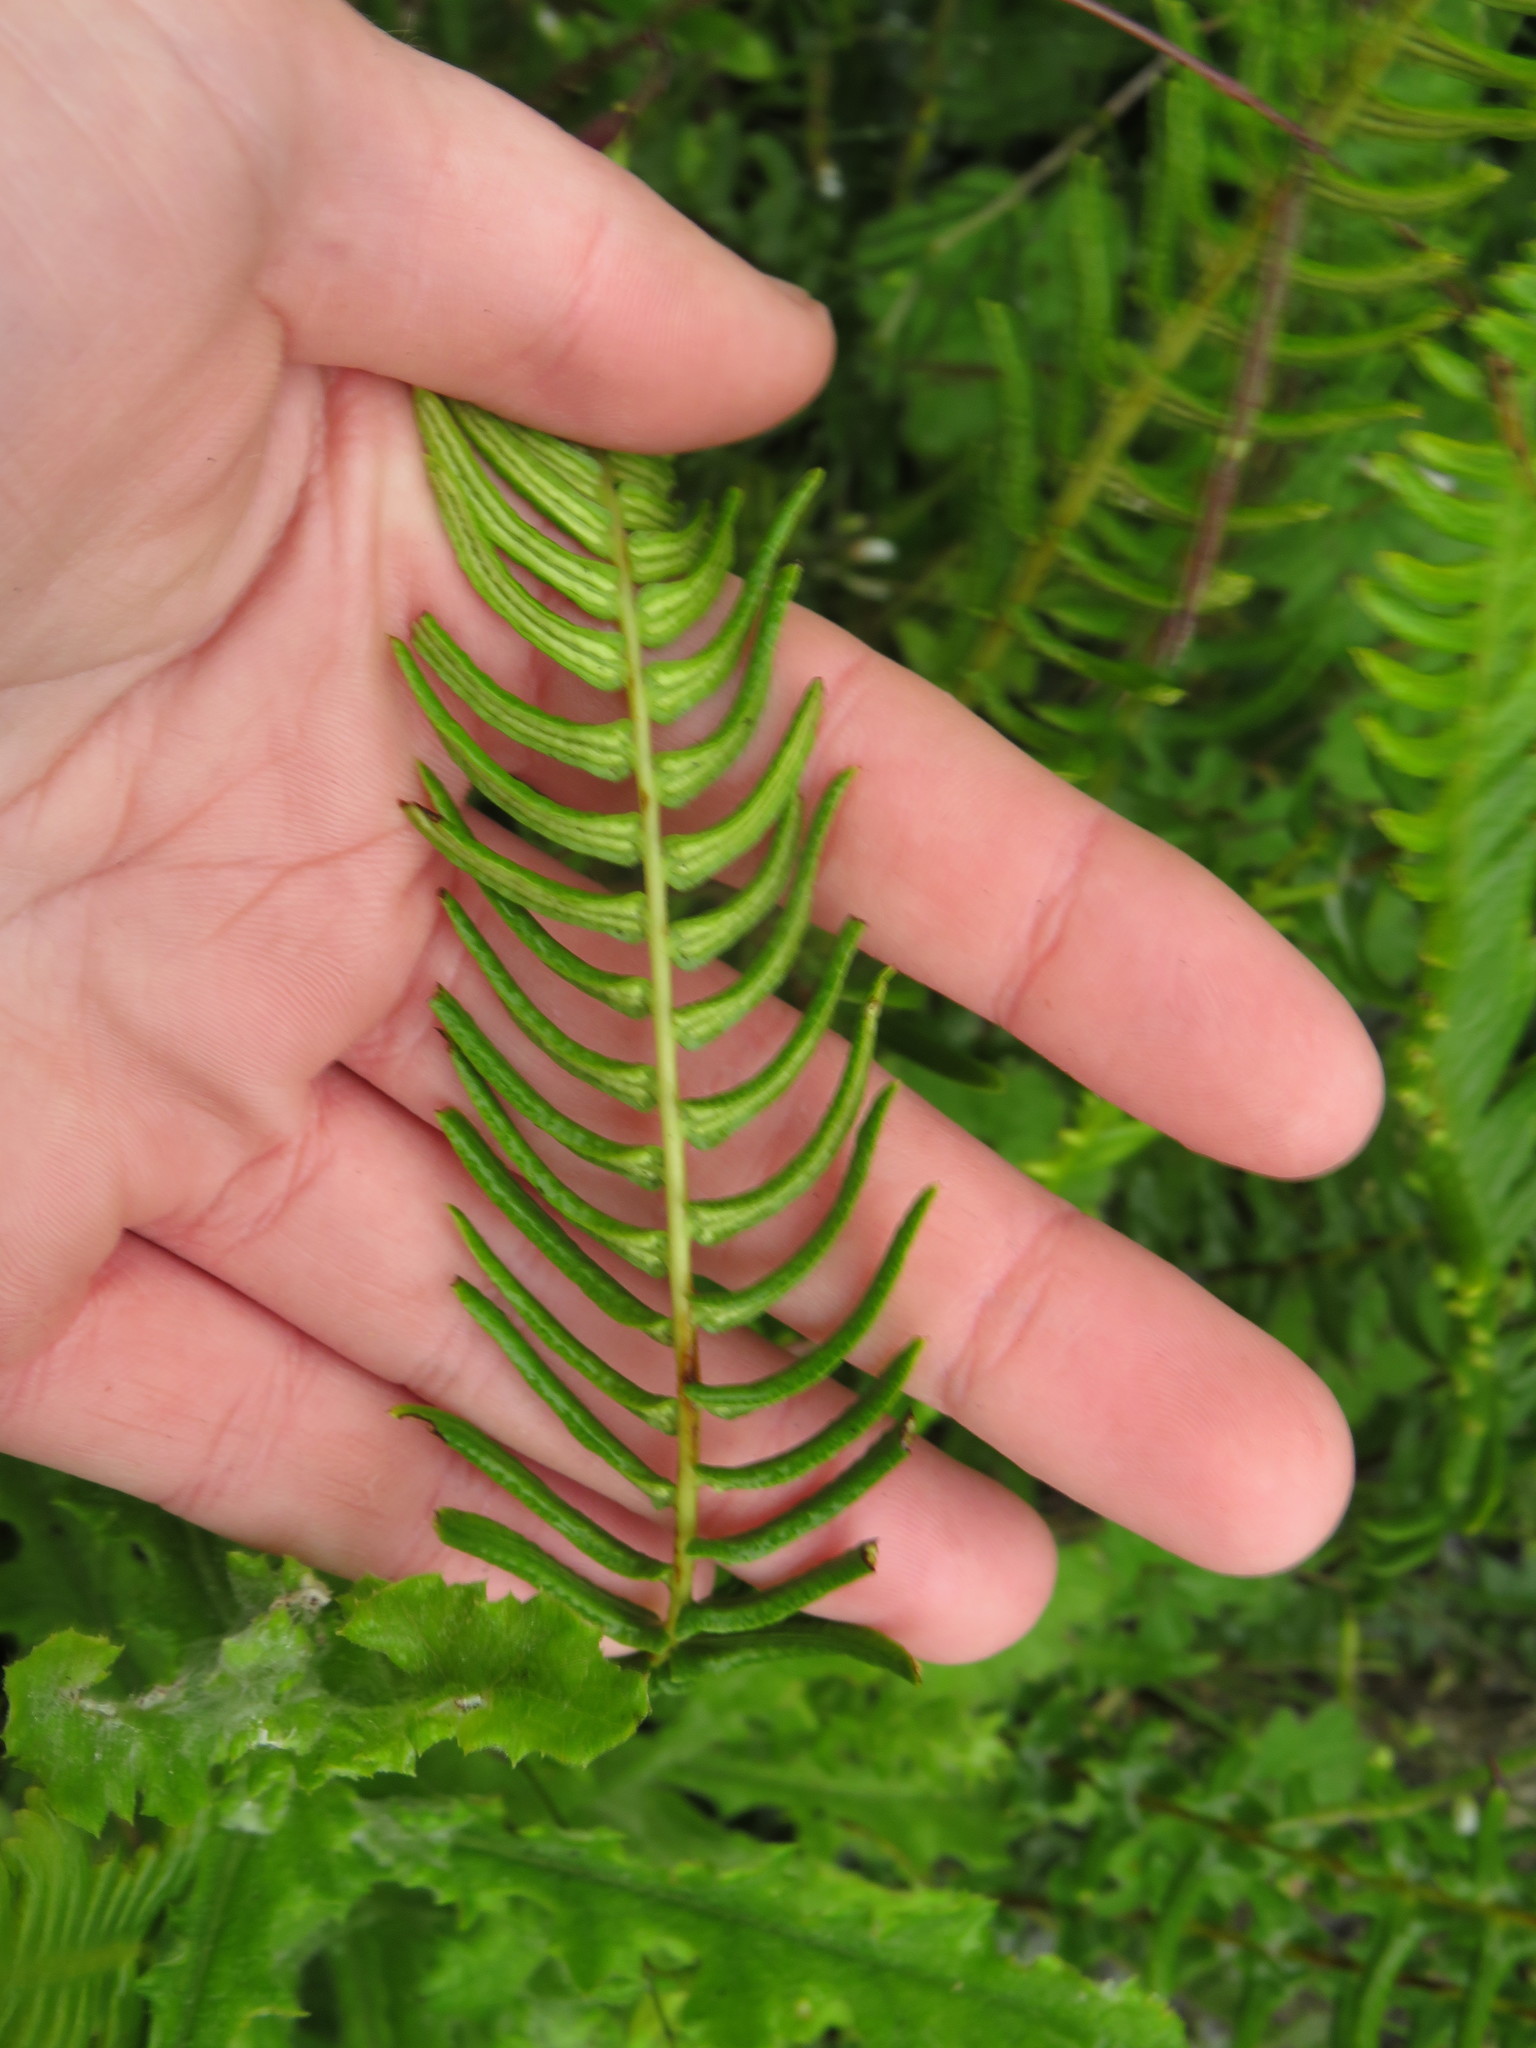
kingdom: Plantae
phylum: Tracheophyta
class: Polypodiopsida
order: Polypodiales
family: Blechnaceae
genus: Blechnum
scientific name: Blechnum punctulatum
